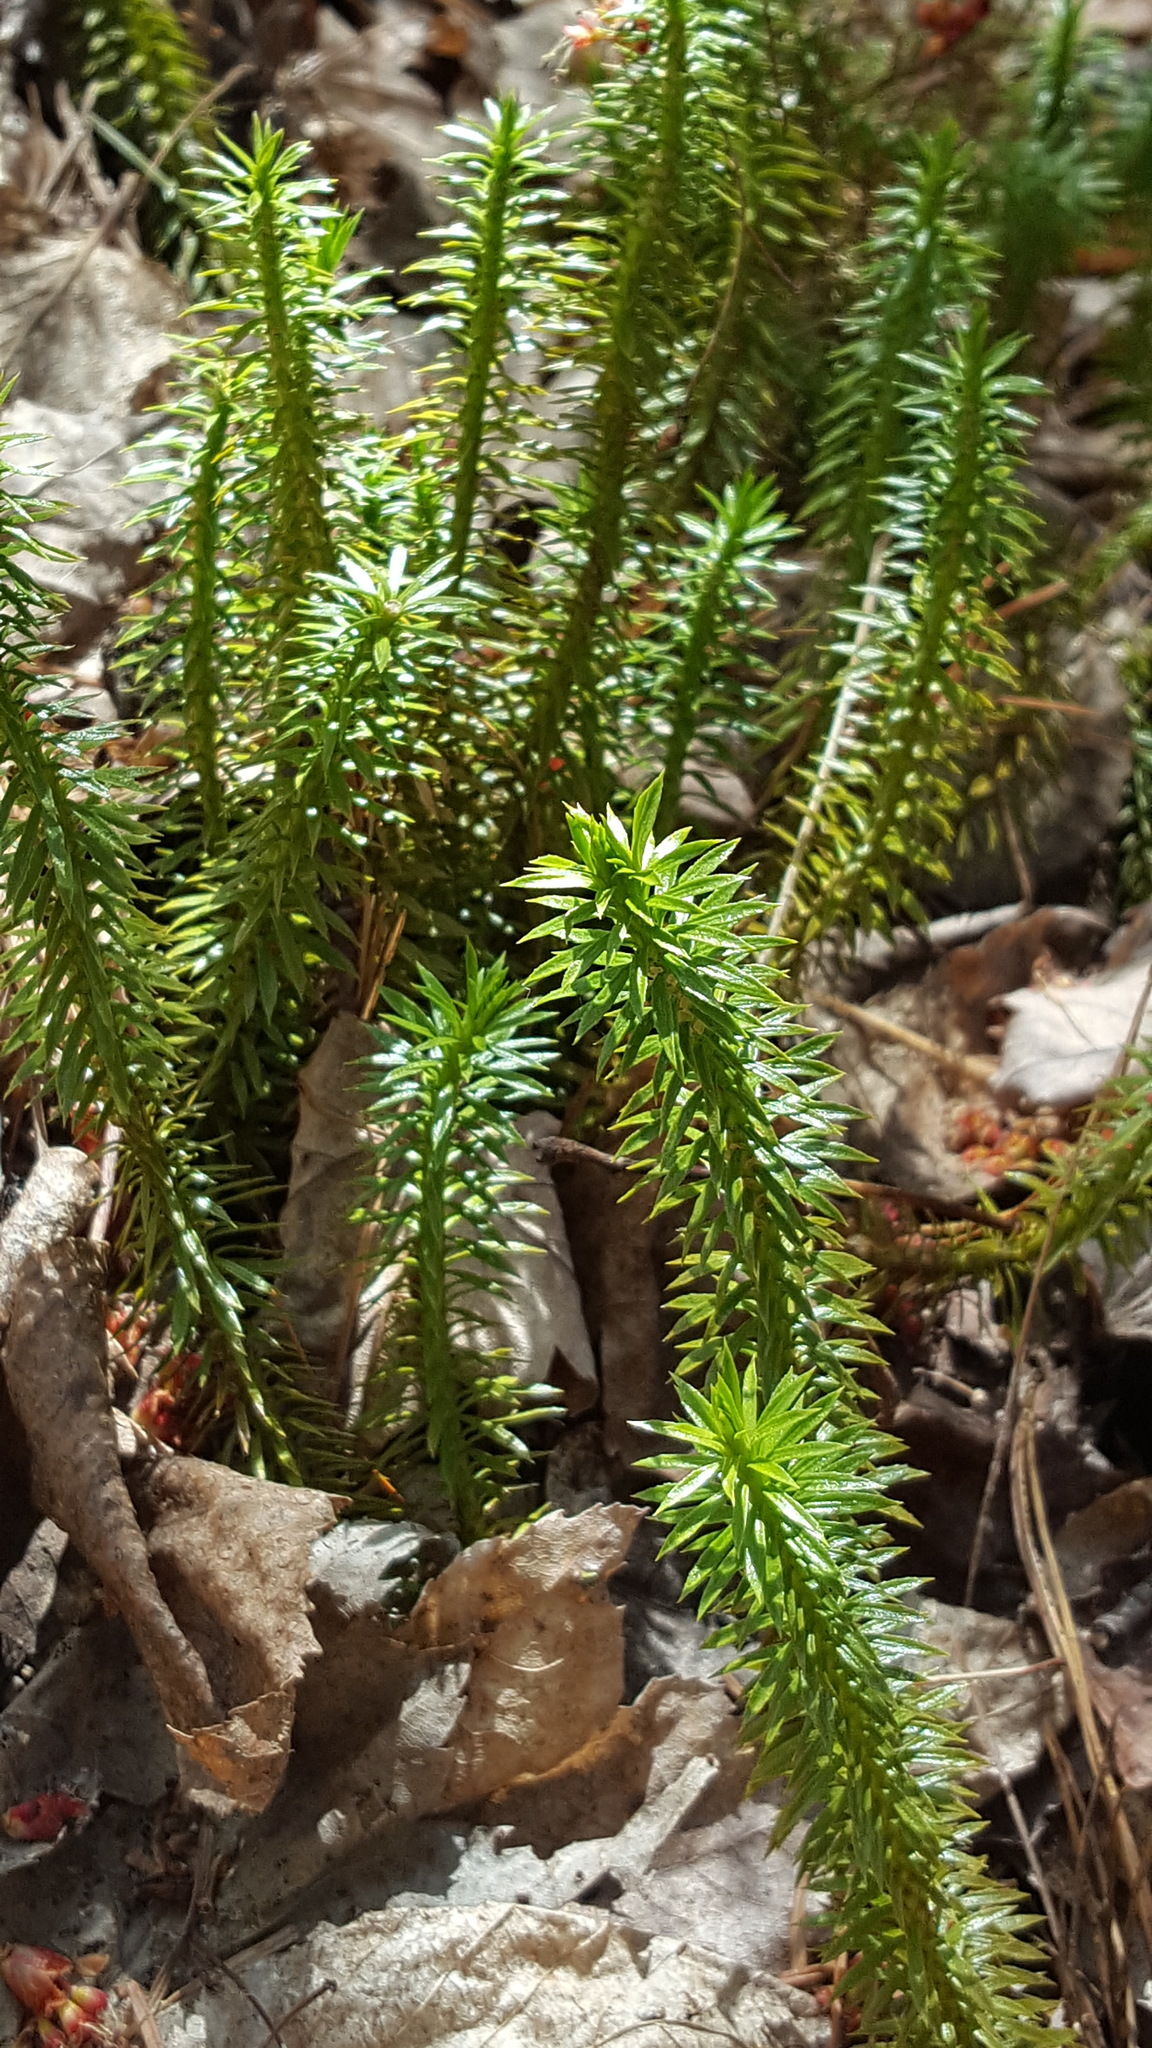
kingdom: Plantae
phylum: Tracheophyta
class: Lycopodiopsida
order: Lycopodiales
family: Lycopodiaceae
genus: Huperzia
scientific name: Huperzia lucidula
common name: Shining clubmoss
